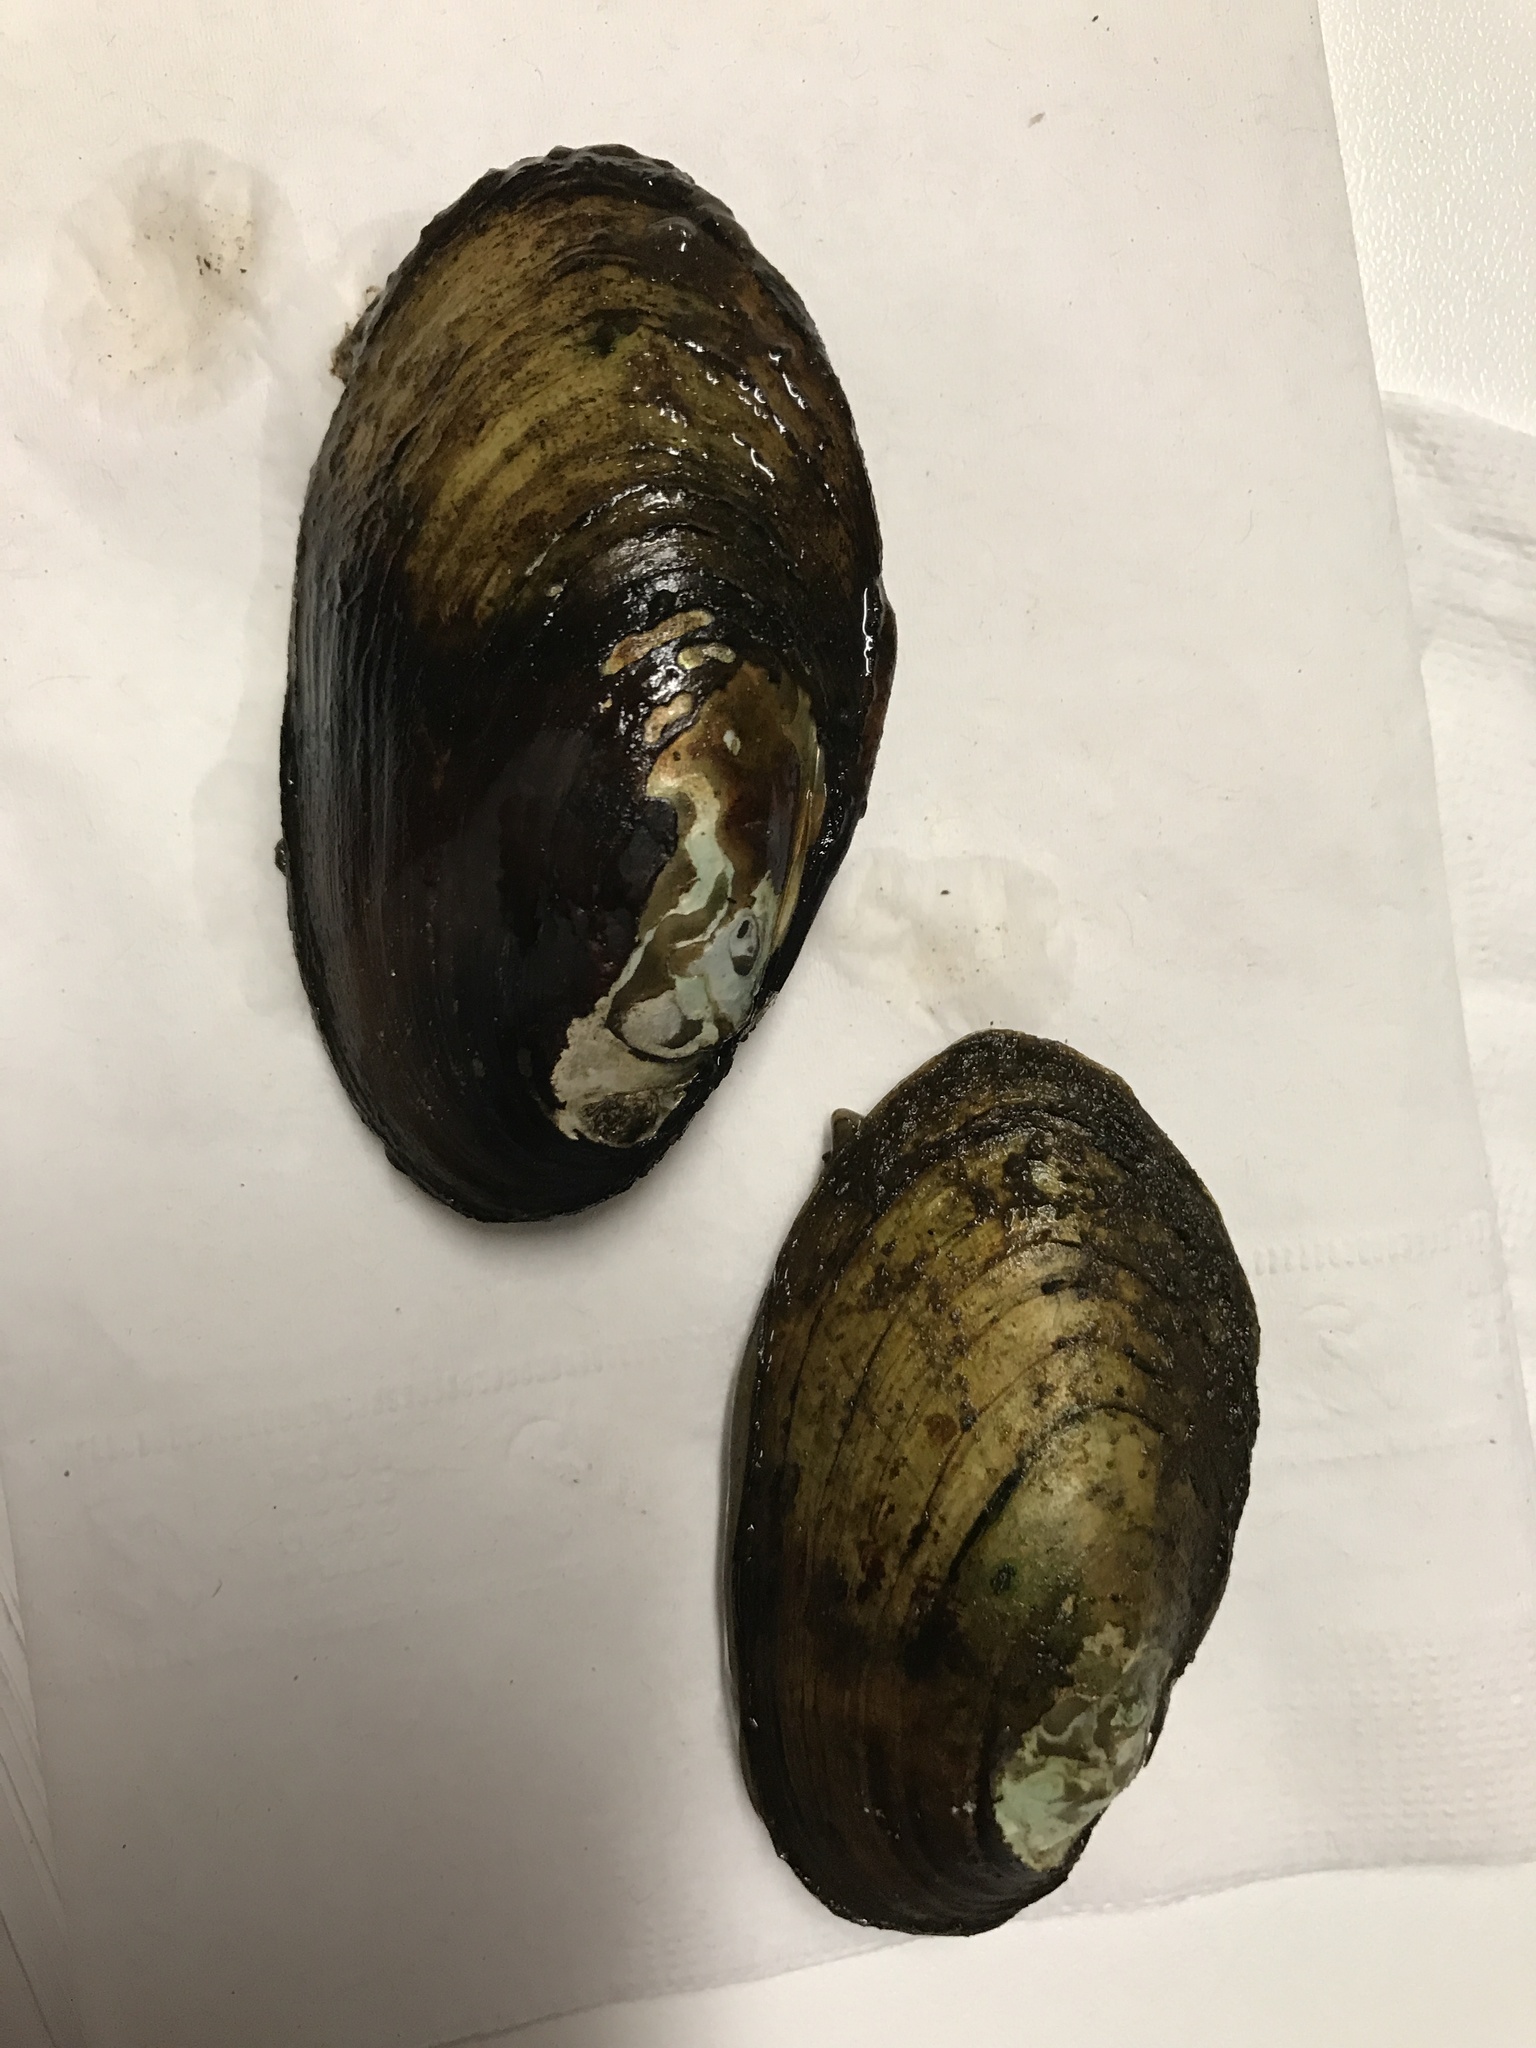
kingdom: Animalia
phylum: Mollusca
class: Bivalvia
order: Unionida
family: Unionidae
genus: Lampsilis
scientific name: Lampsilis siliquoidea
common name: Fatmucket
